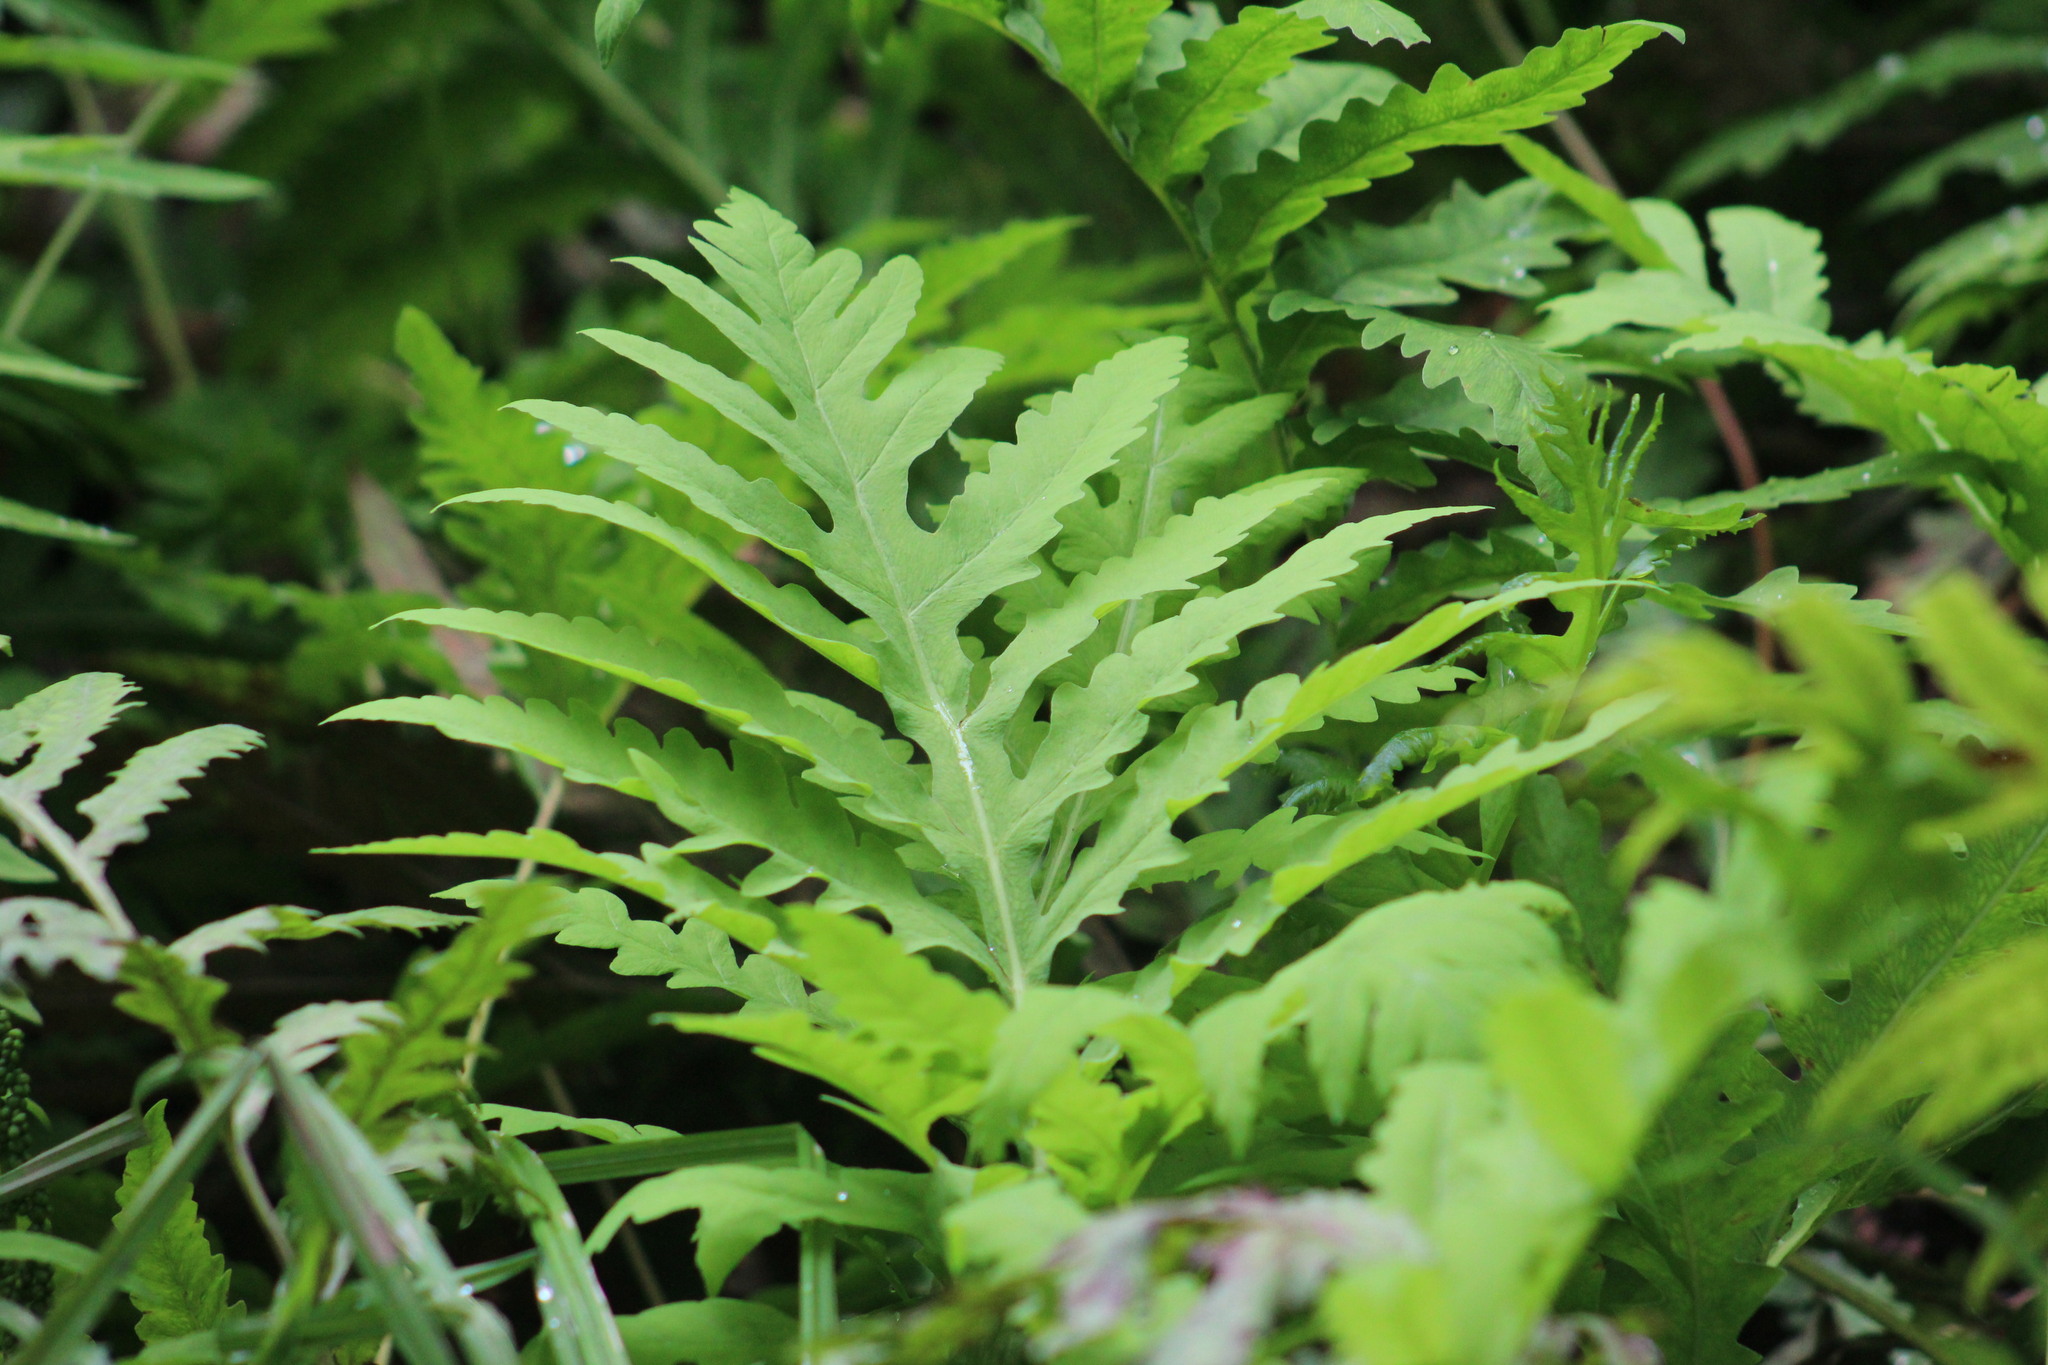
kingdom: Plantae
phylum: Tracheophyta
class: Polypodiopsida
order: Polypodiales
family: Onocleaceae
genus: Onoclea
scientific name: Onoclea sensibilis
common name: Sensitive fern
